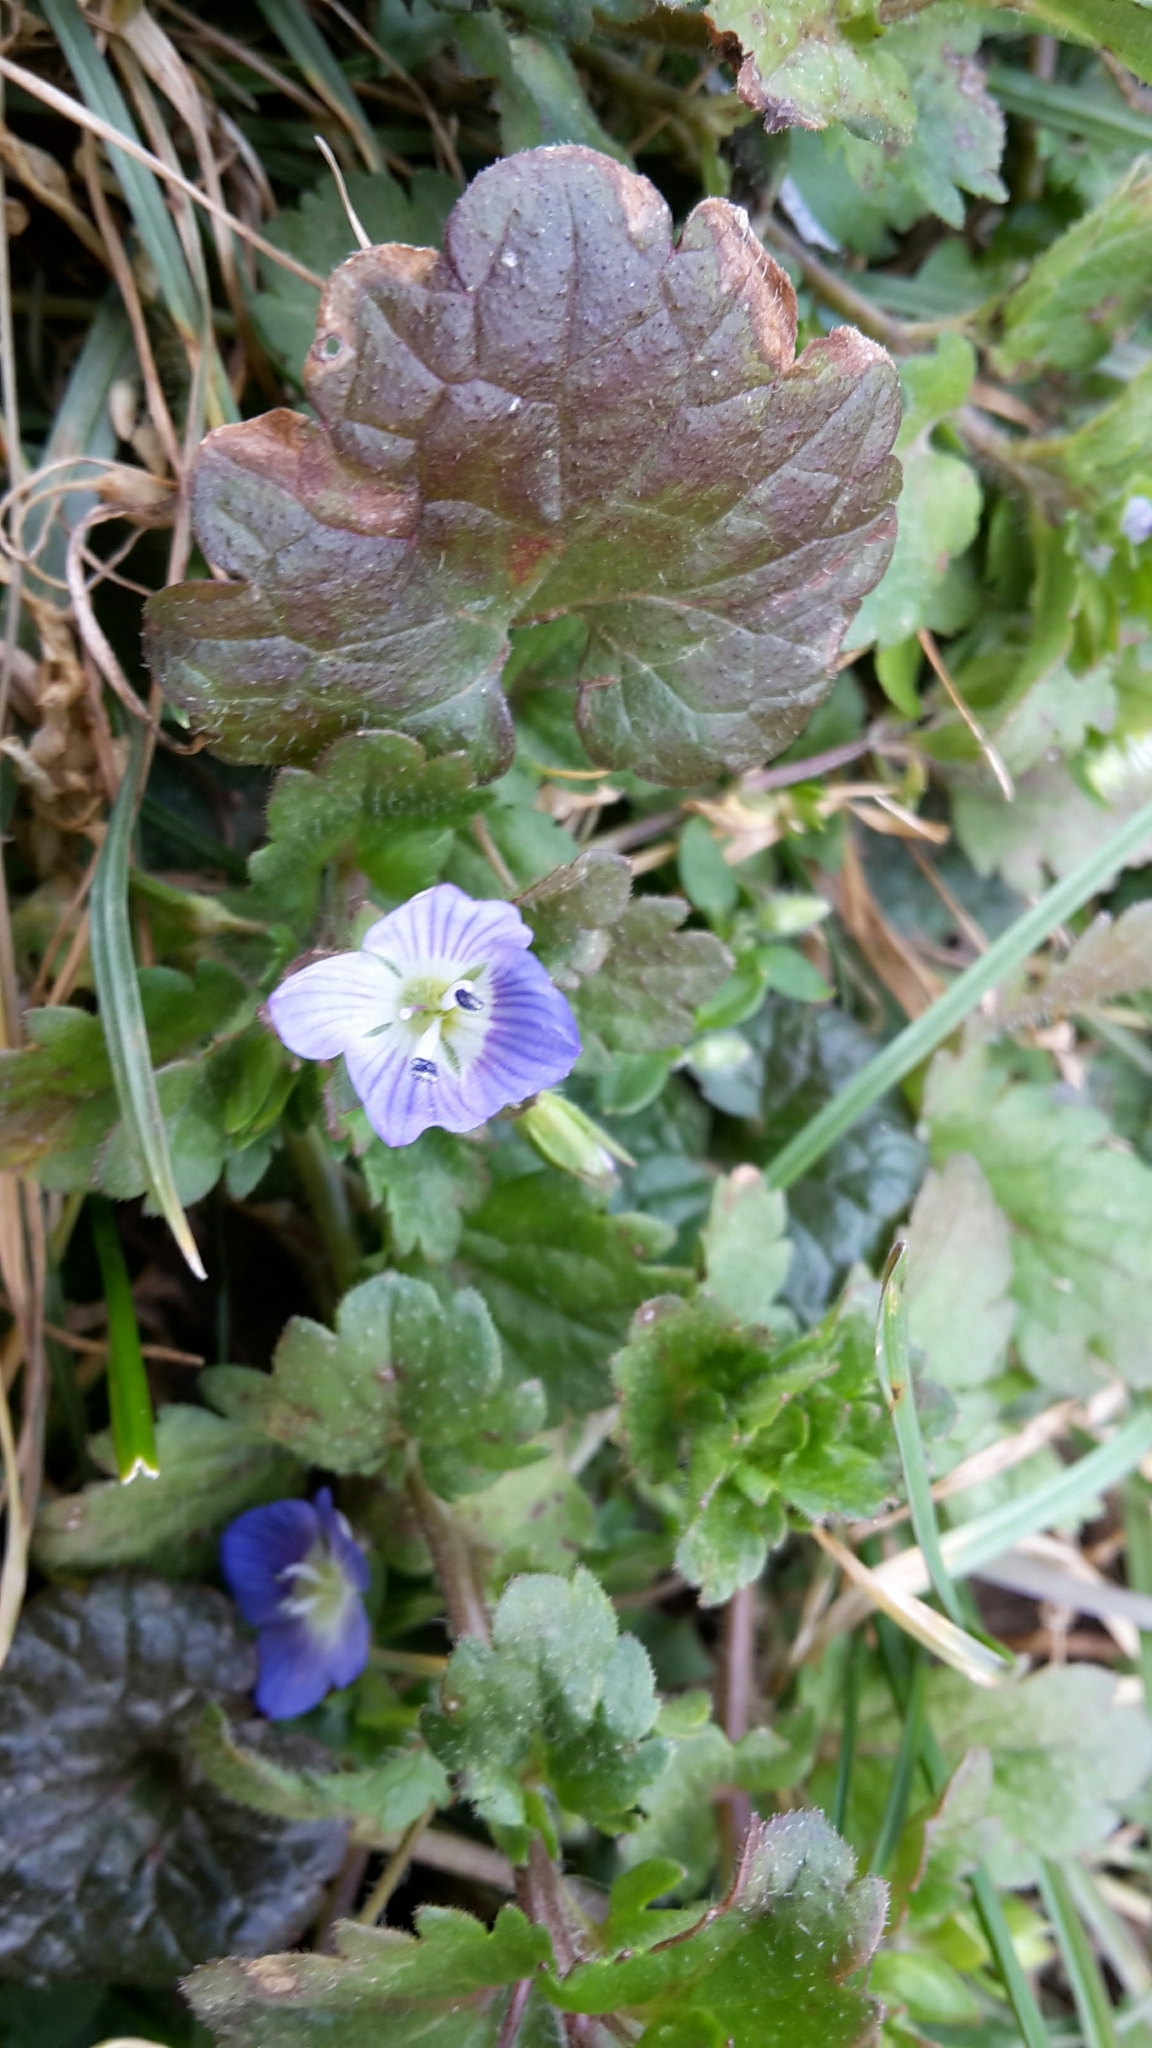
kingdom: Plantae
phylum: Tracheophyta
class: Magnoliopsida
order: Lamiales
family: Plantaginaceae
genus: Veronica
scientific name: Veronica persica
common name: Common field-speedwell
